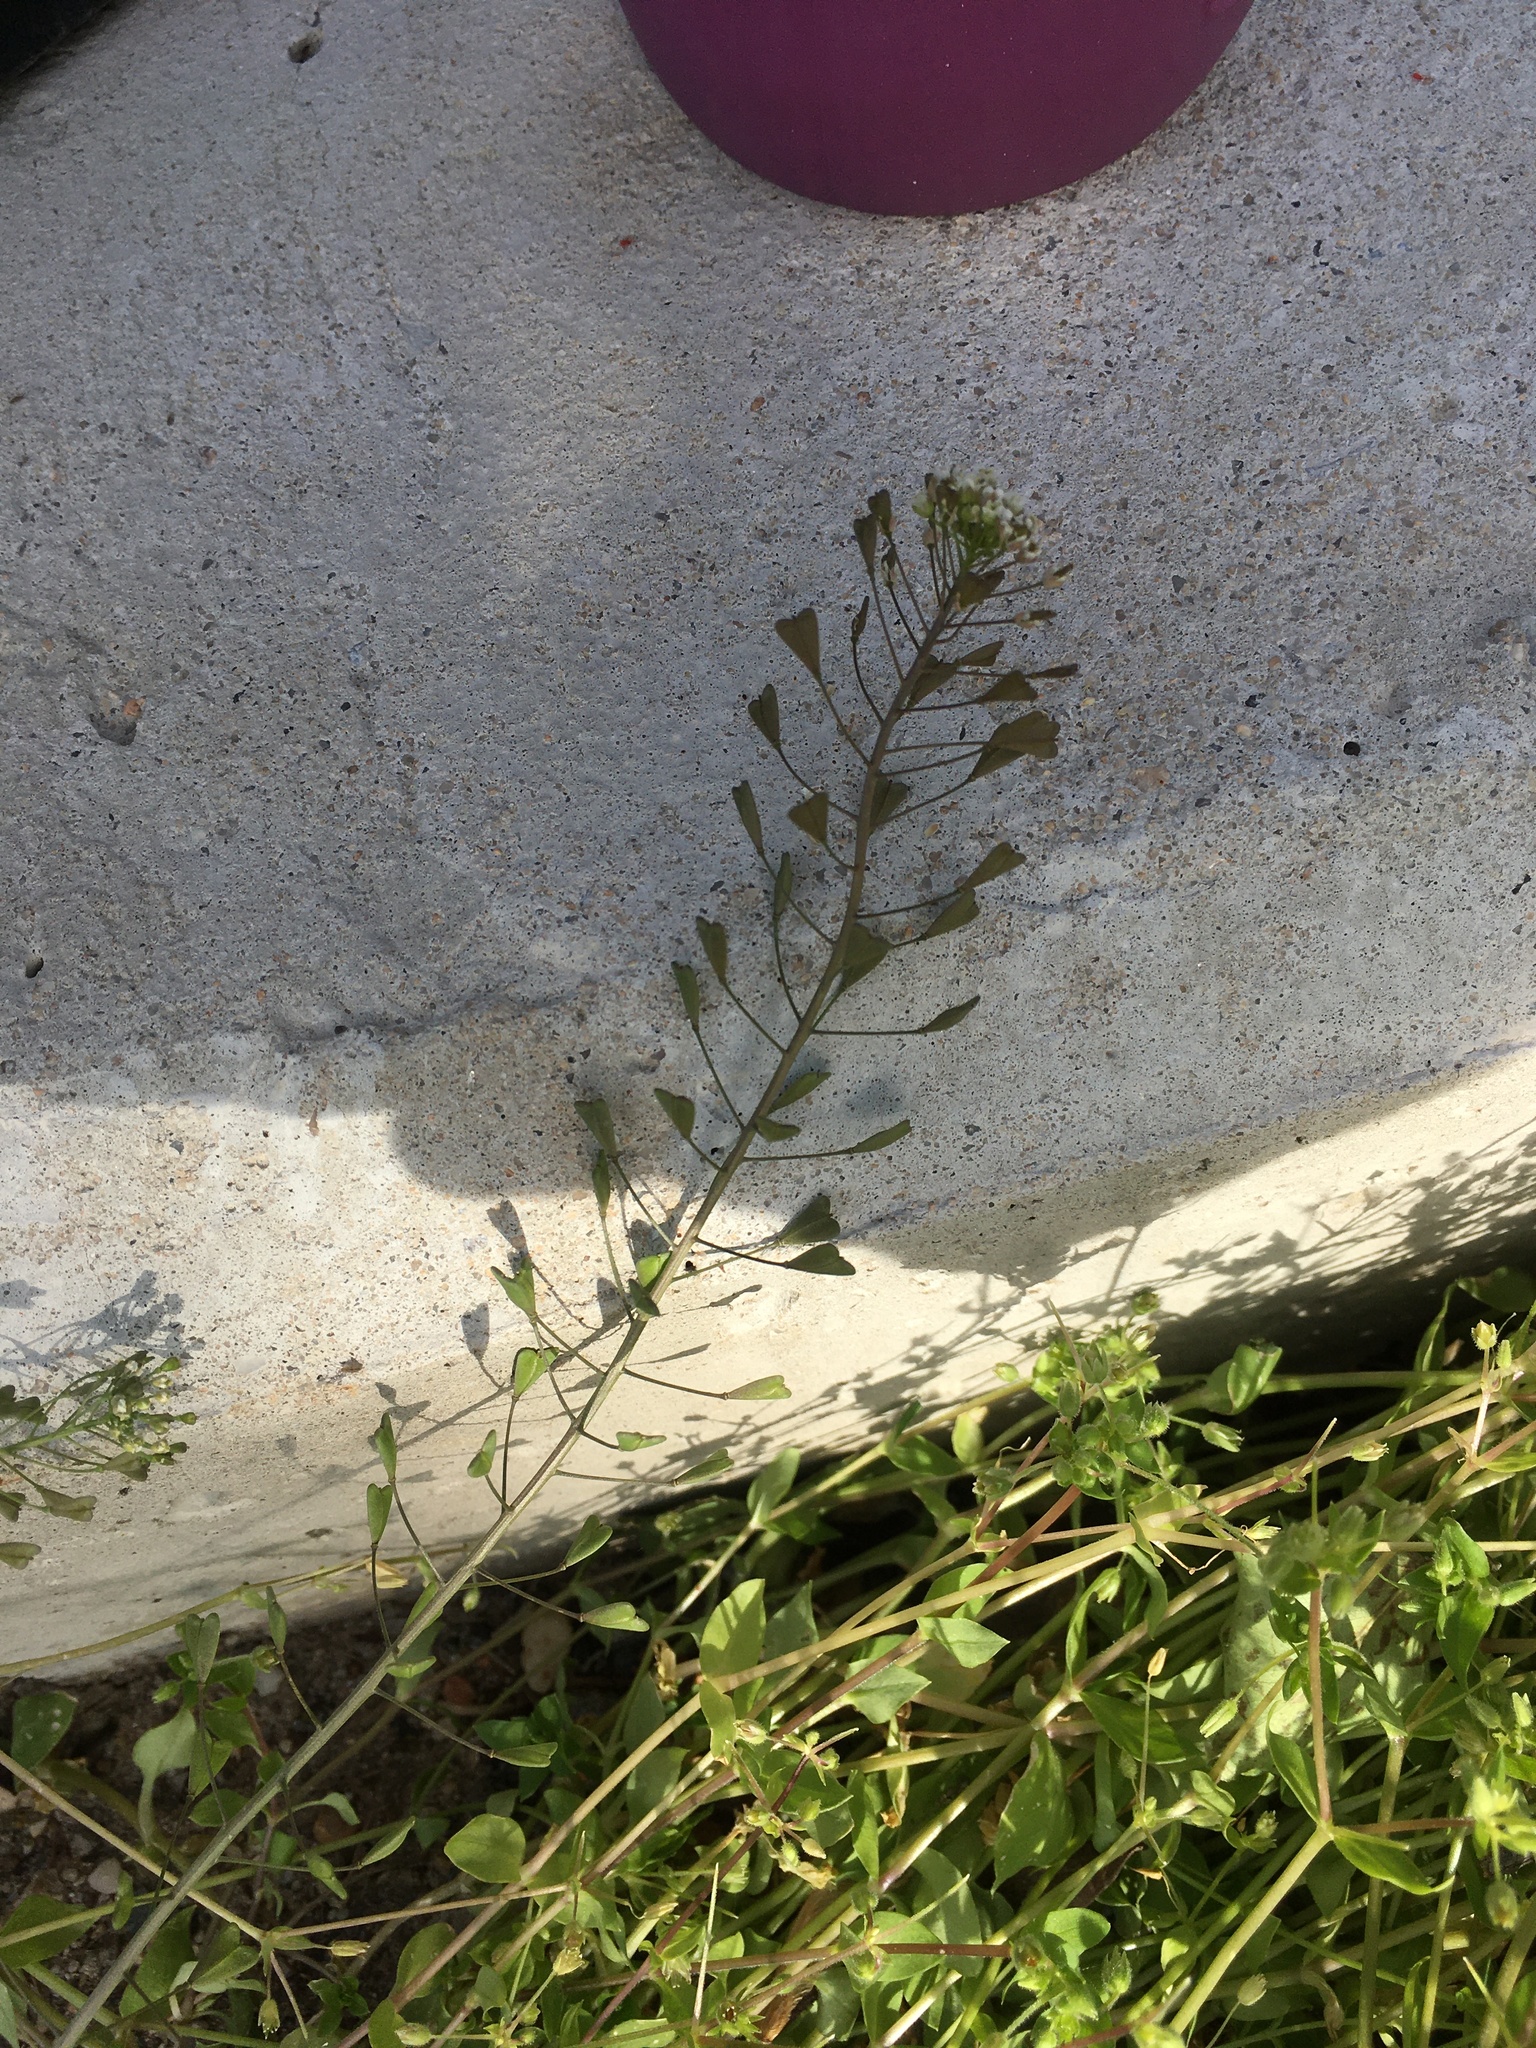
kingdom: Plantae
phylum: Tracheophyta
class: Magnoliopsida
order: Brassicales
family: Brassicaceae
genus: Capsella
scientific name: Capsella bursa-pastoris
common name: Shepherd's purse
